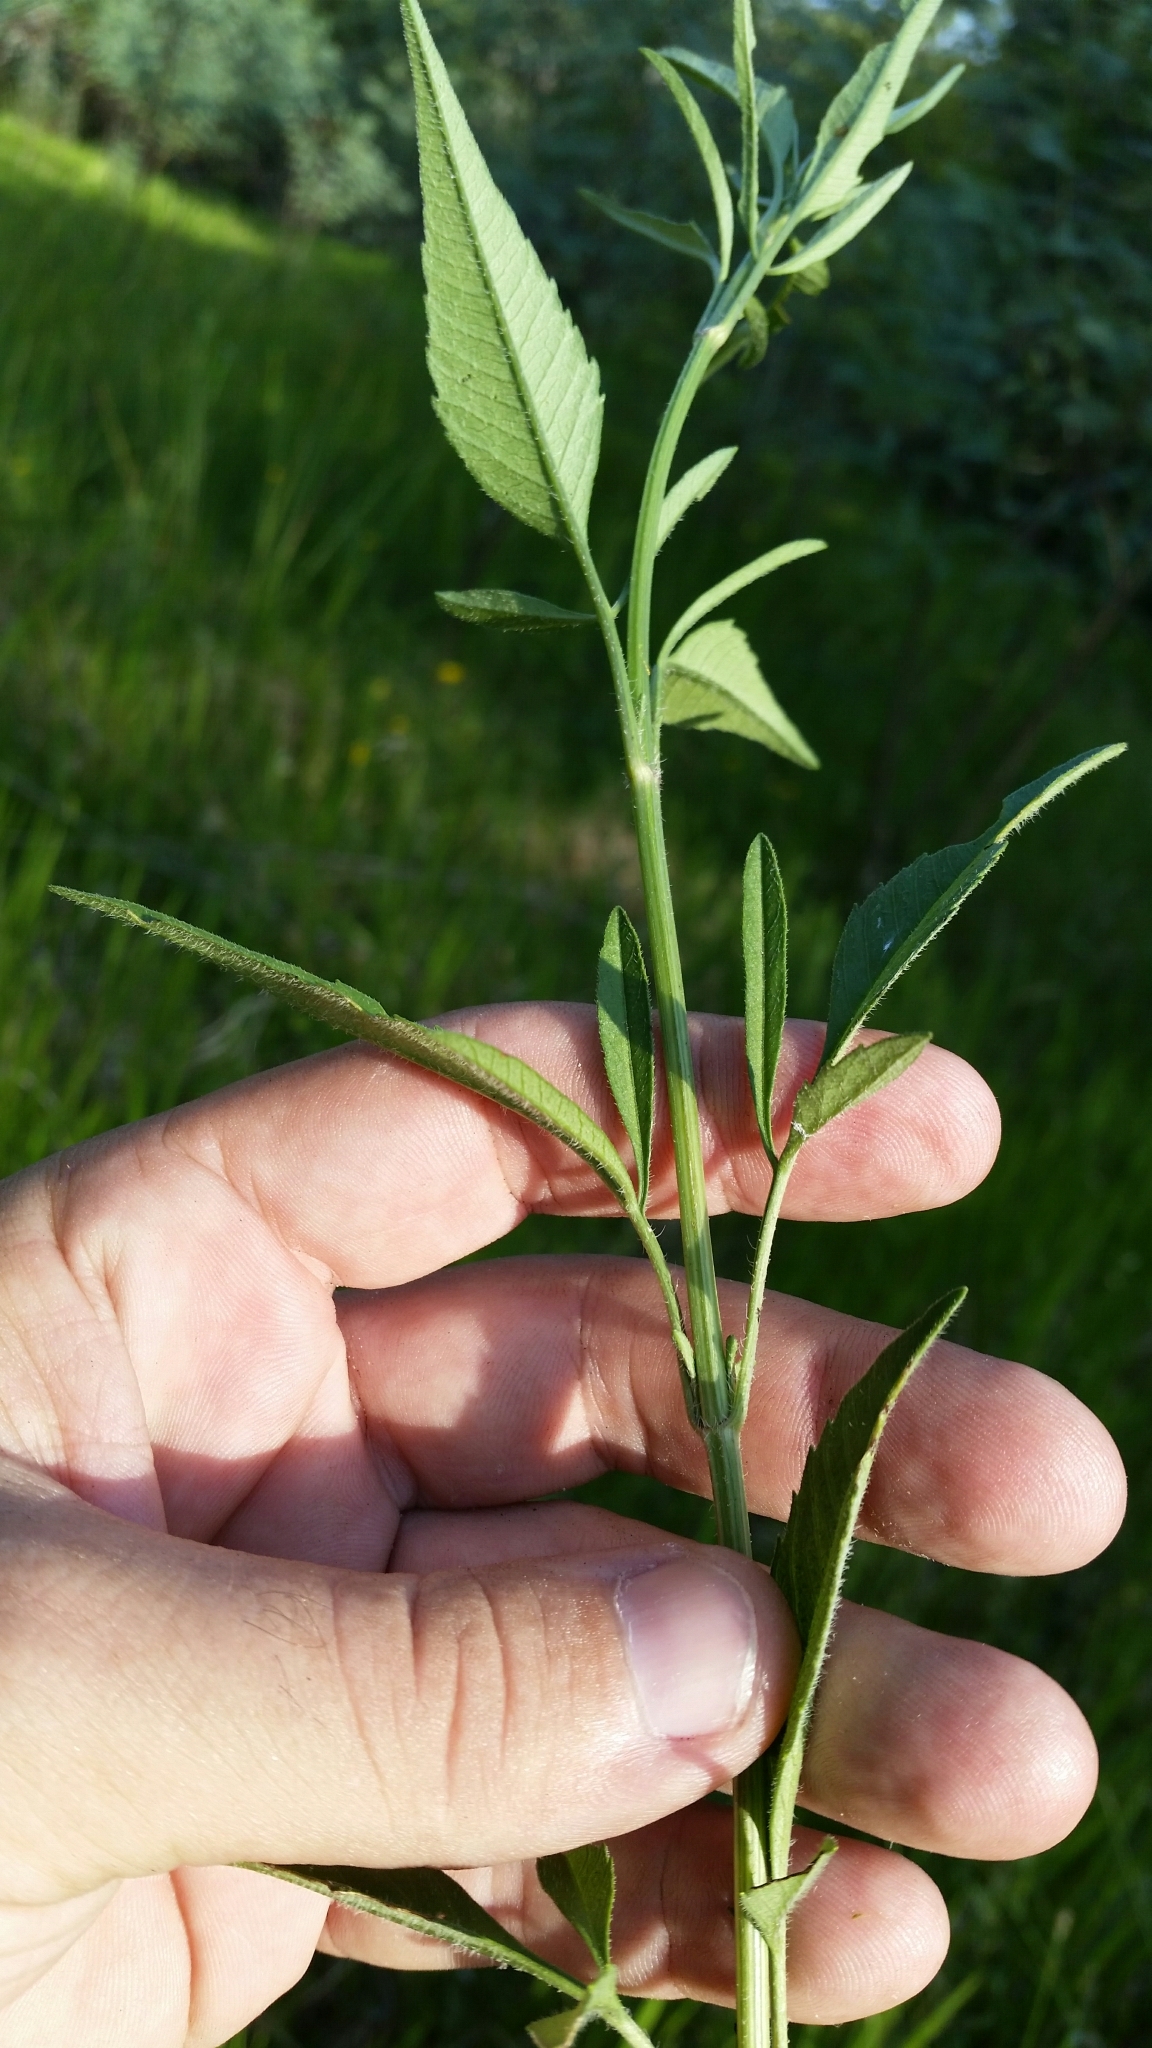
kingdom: Plantae
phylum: Tracheophyta
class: Magnoliopsida
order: Asterales
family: Asteraceae
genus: Bidens
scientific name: Bidens mitis
